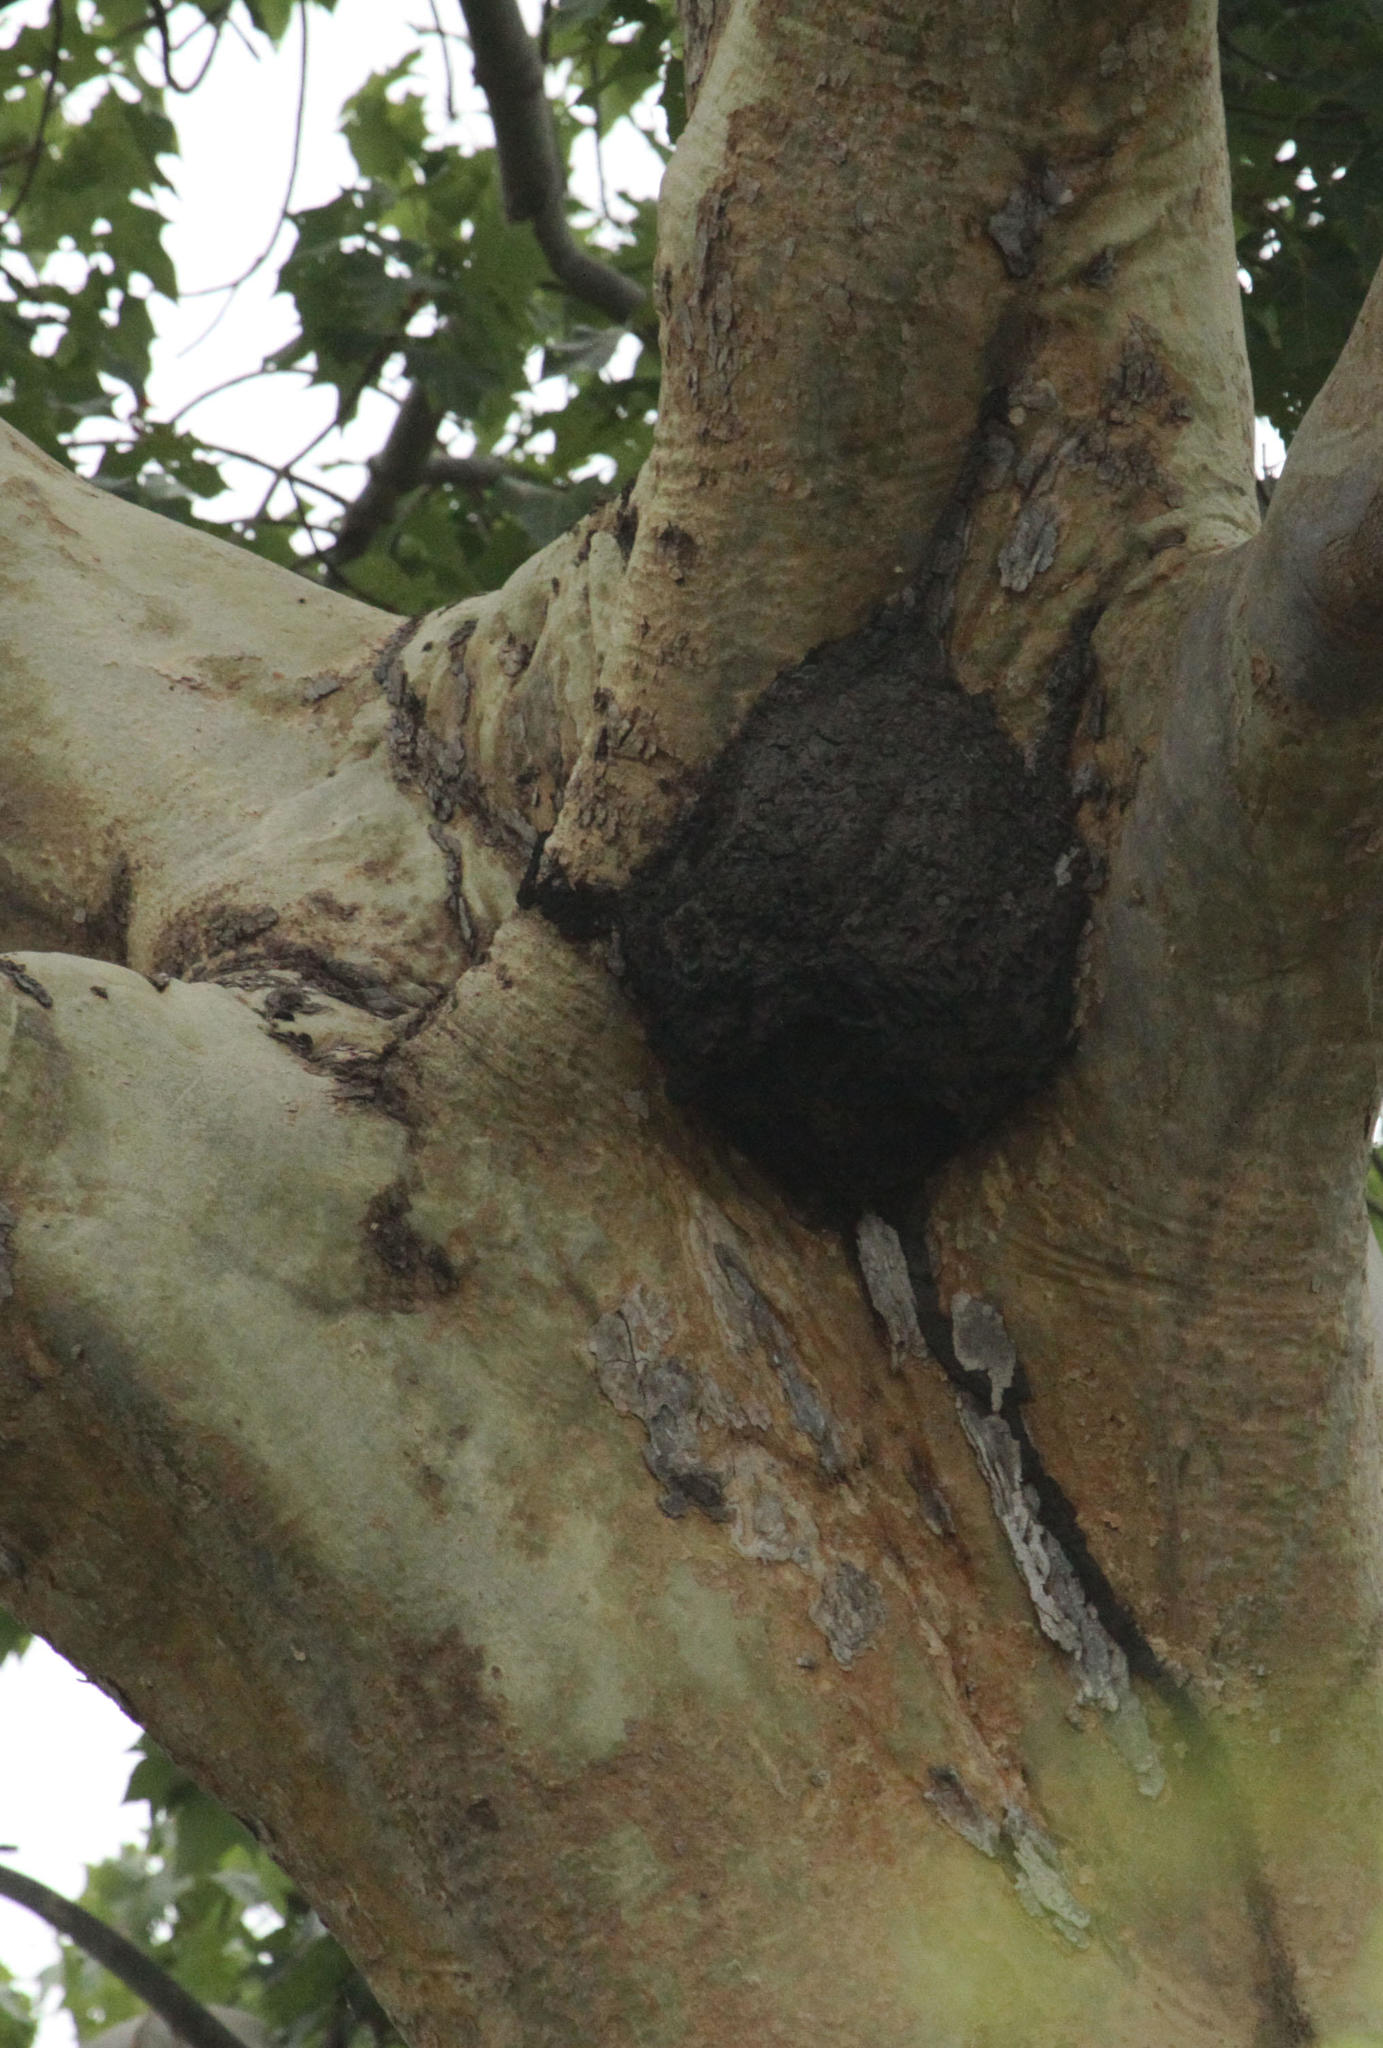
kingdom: Animalia
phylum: Arthropoda
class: Insecta
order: Blattodea
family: Termitidae
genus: Grallatotermes
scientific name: Grallatotermes africanus
